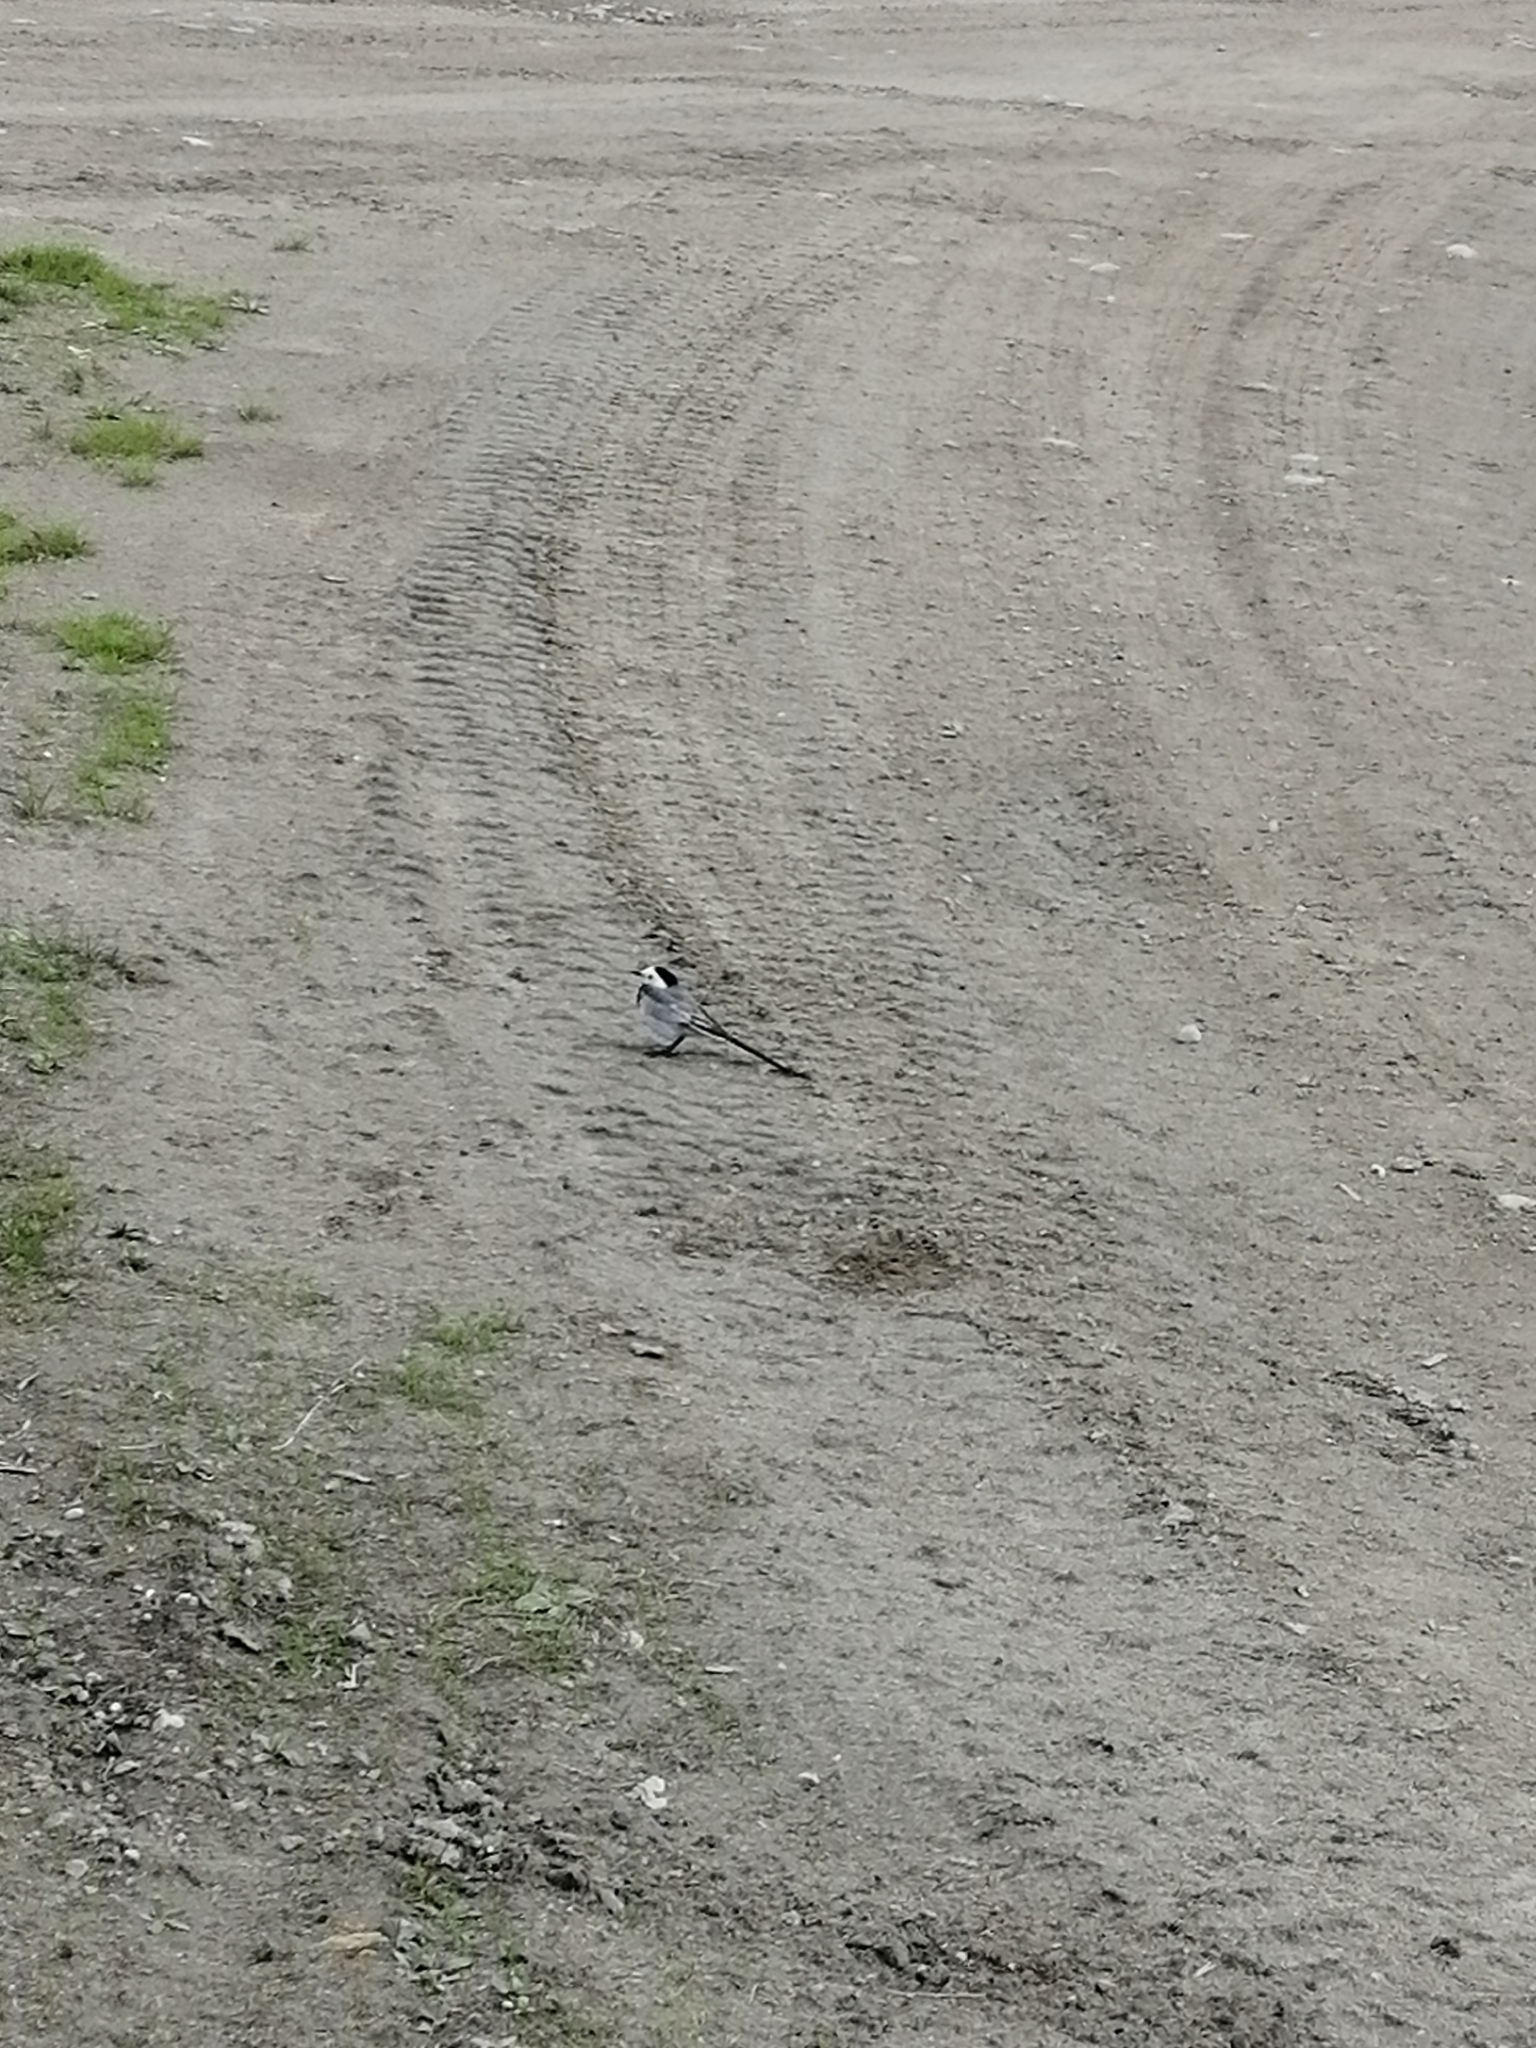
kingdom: Animalia
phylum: Chordata
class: Aves
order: Passeriformes
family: Motacillidae
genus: Motacilla
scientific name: Motacilla alba
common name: White wagtail
